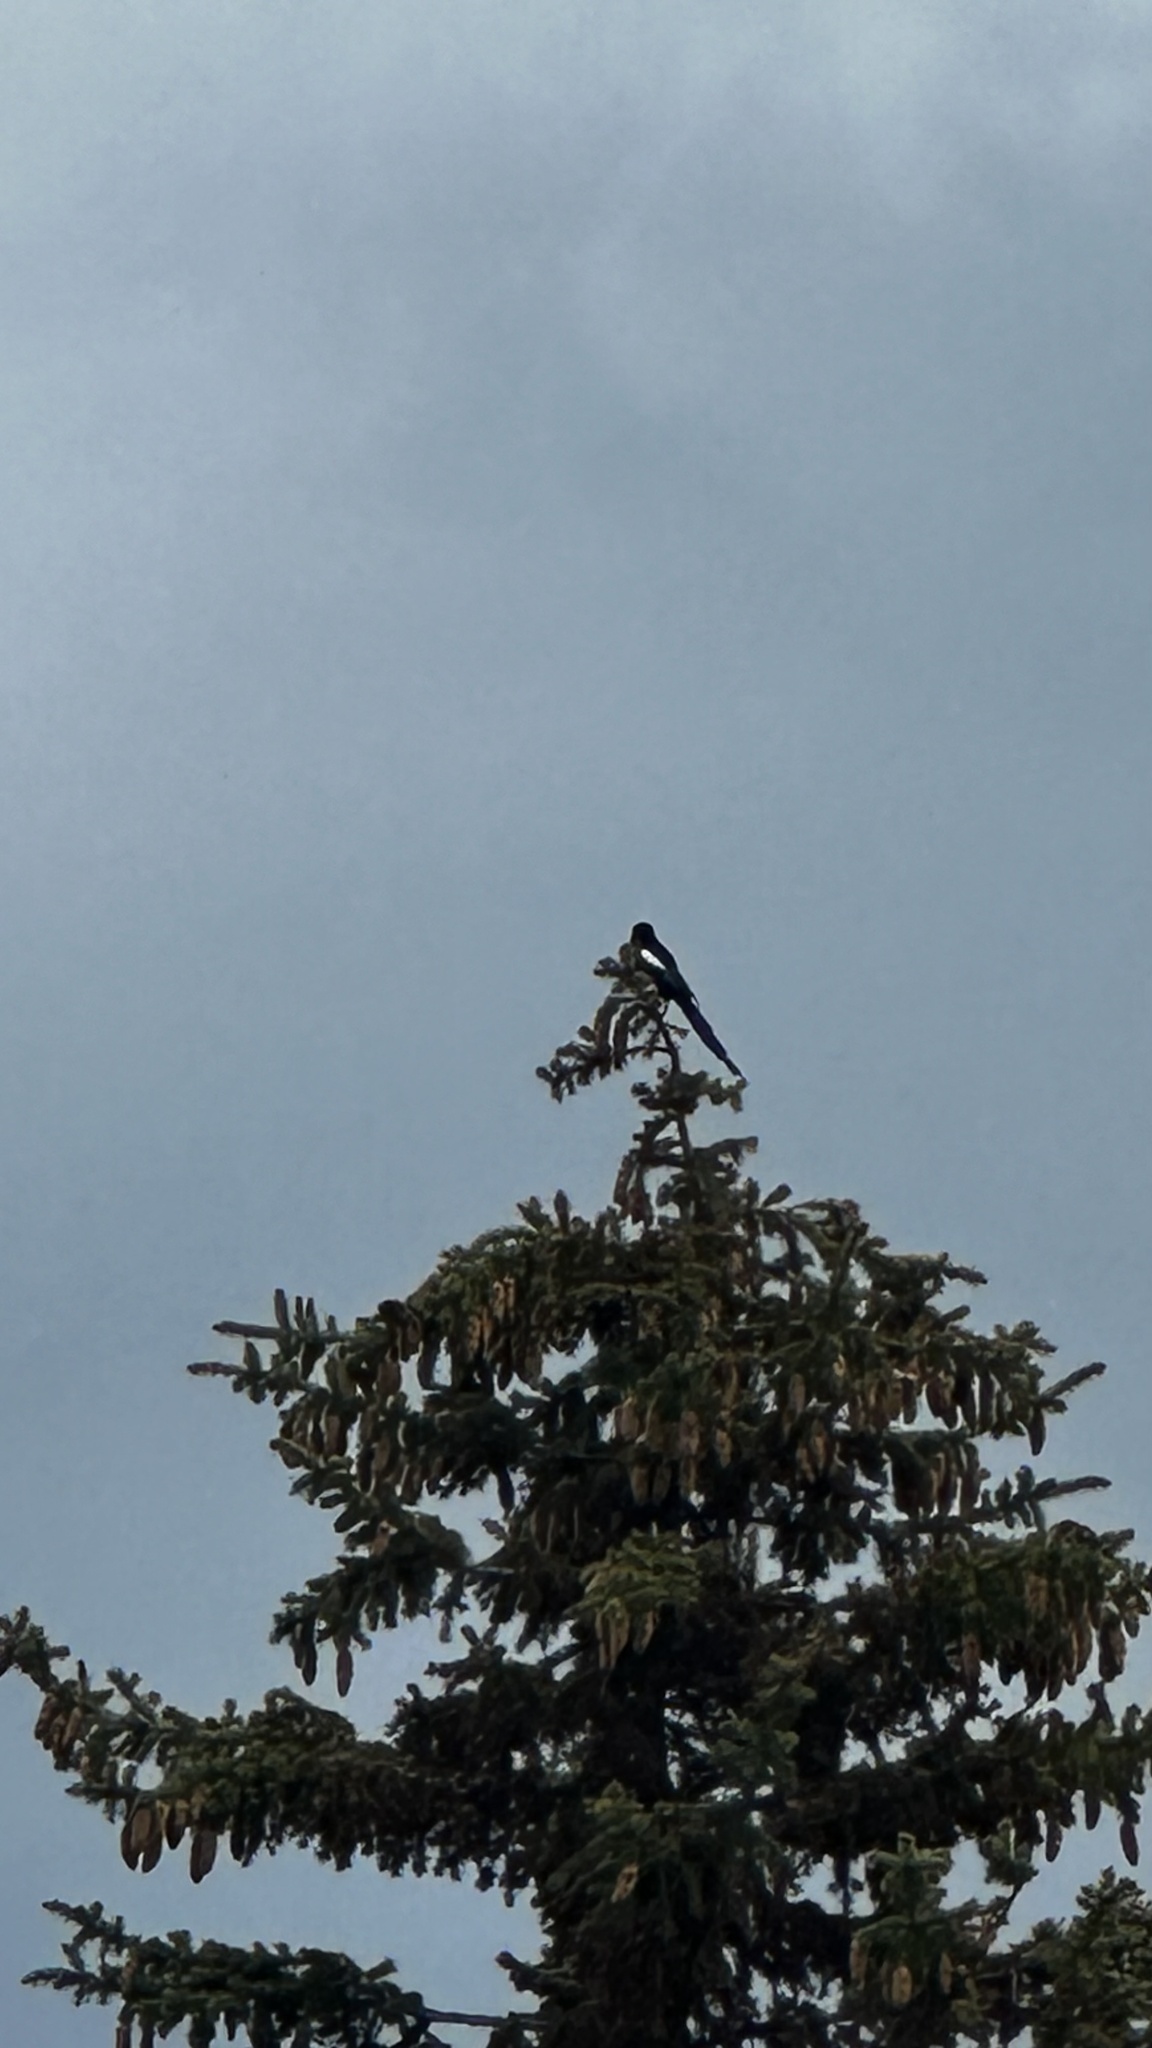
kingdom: Animalia
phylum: Chordata
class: Aves
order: Passeriformes
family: Corvidae
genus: Pica
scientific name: Pica hudsonia
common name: Black-billed magpie
